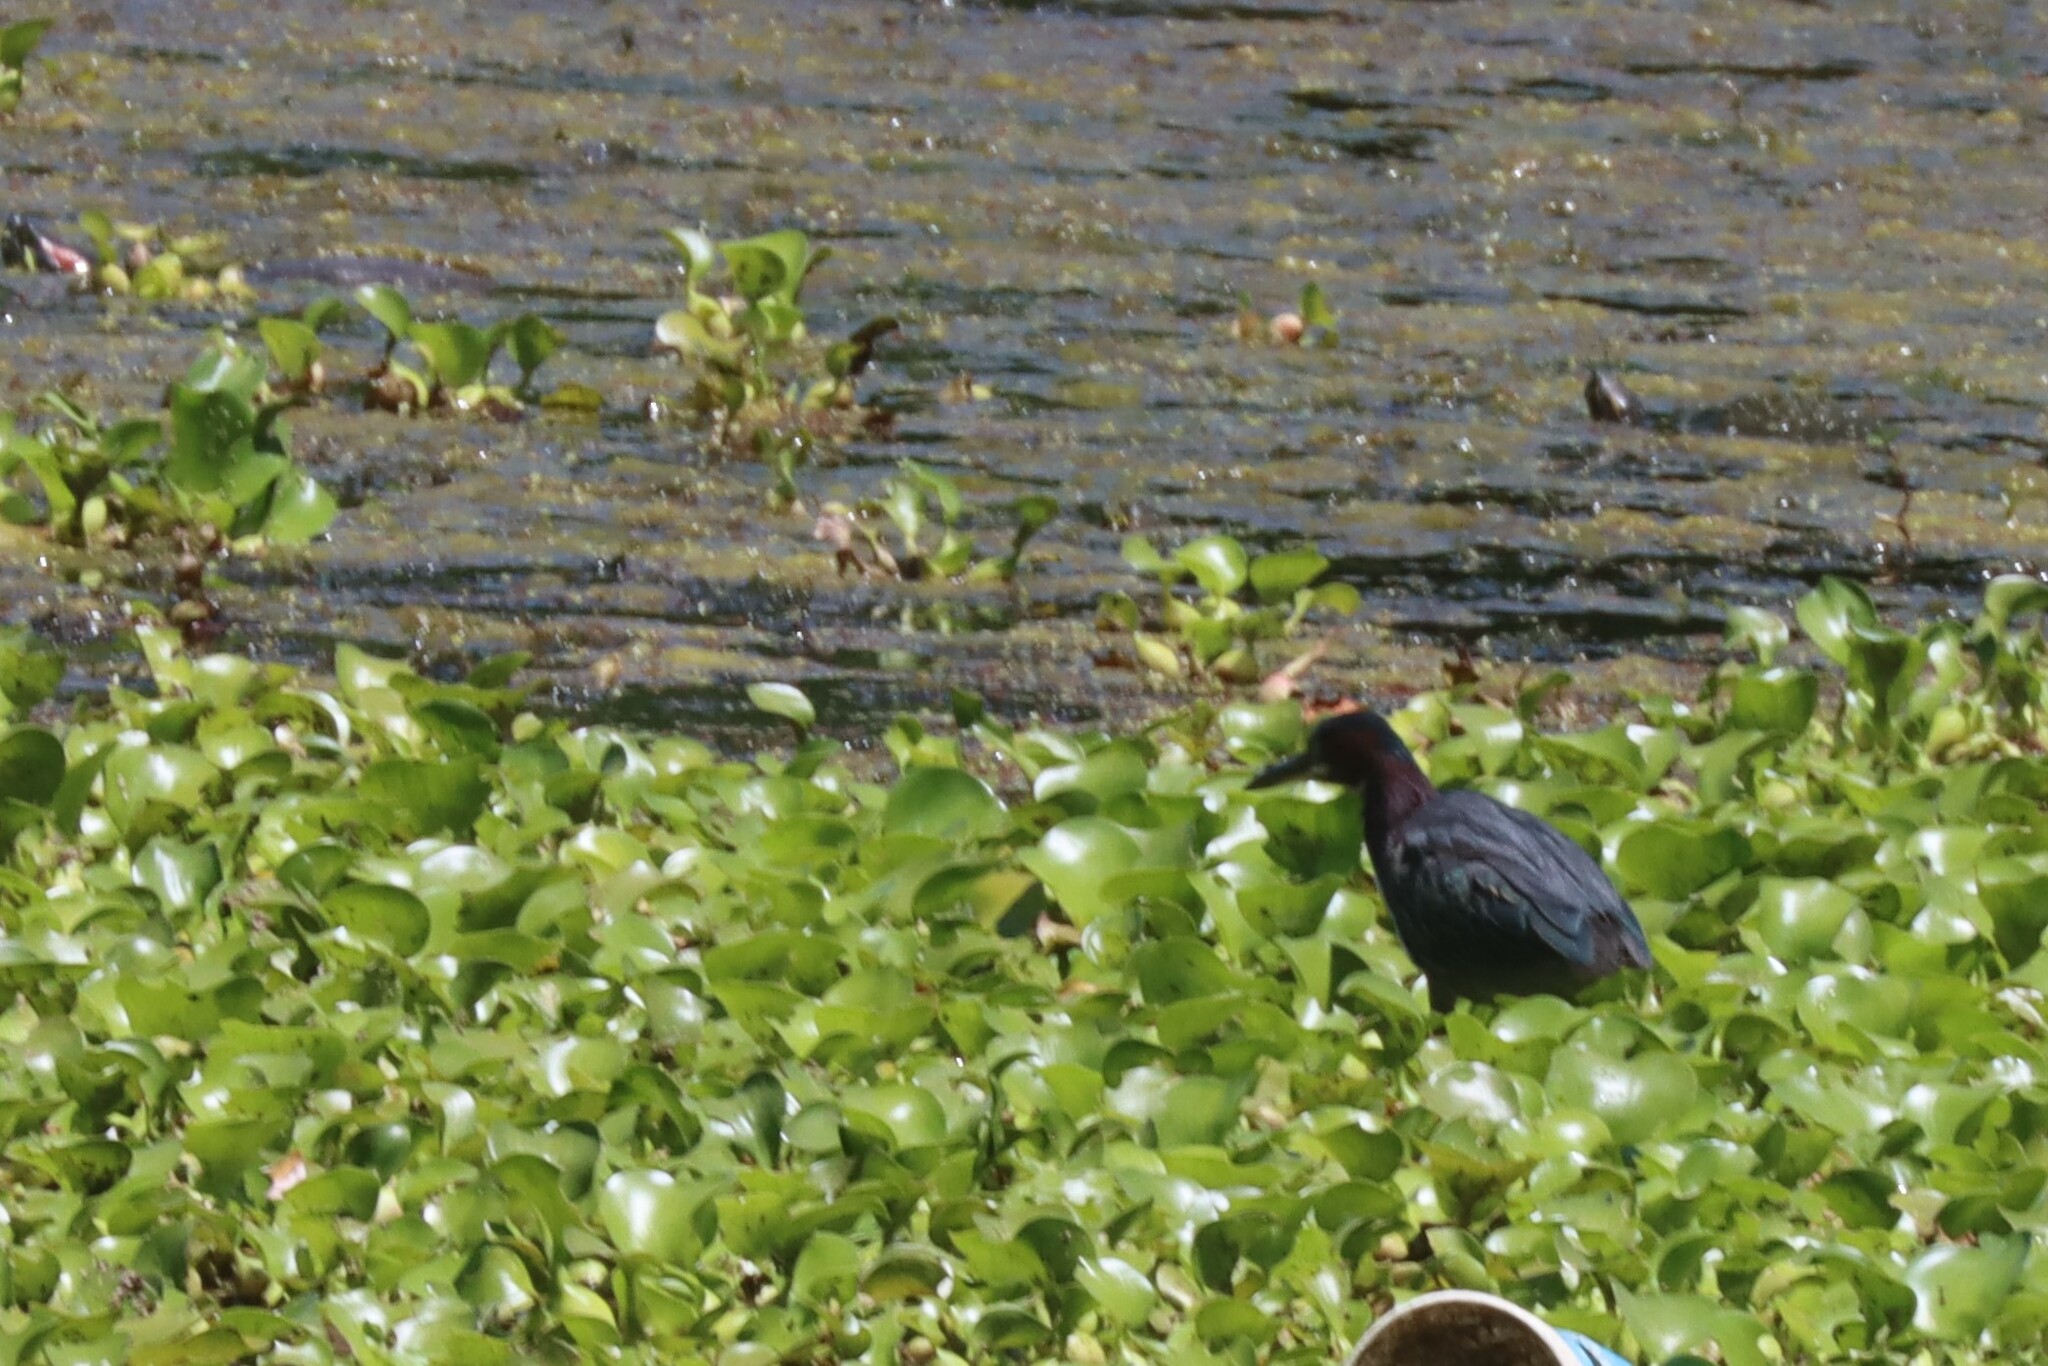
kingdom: Animalia
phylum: Chordata
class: Aves
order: Pelecaniformes
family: Ardeidae
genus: Butorides
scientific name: Butorides virescens
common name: Green heron
